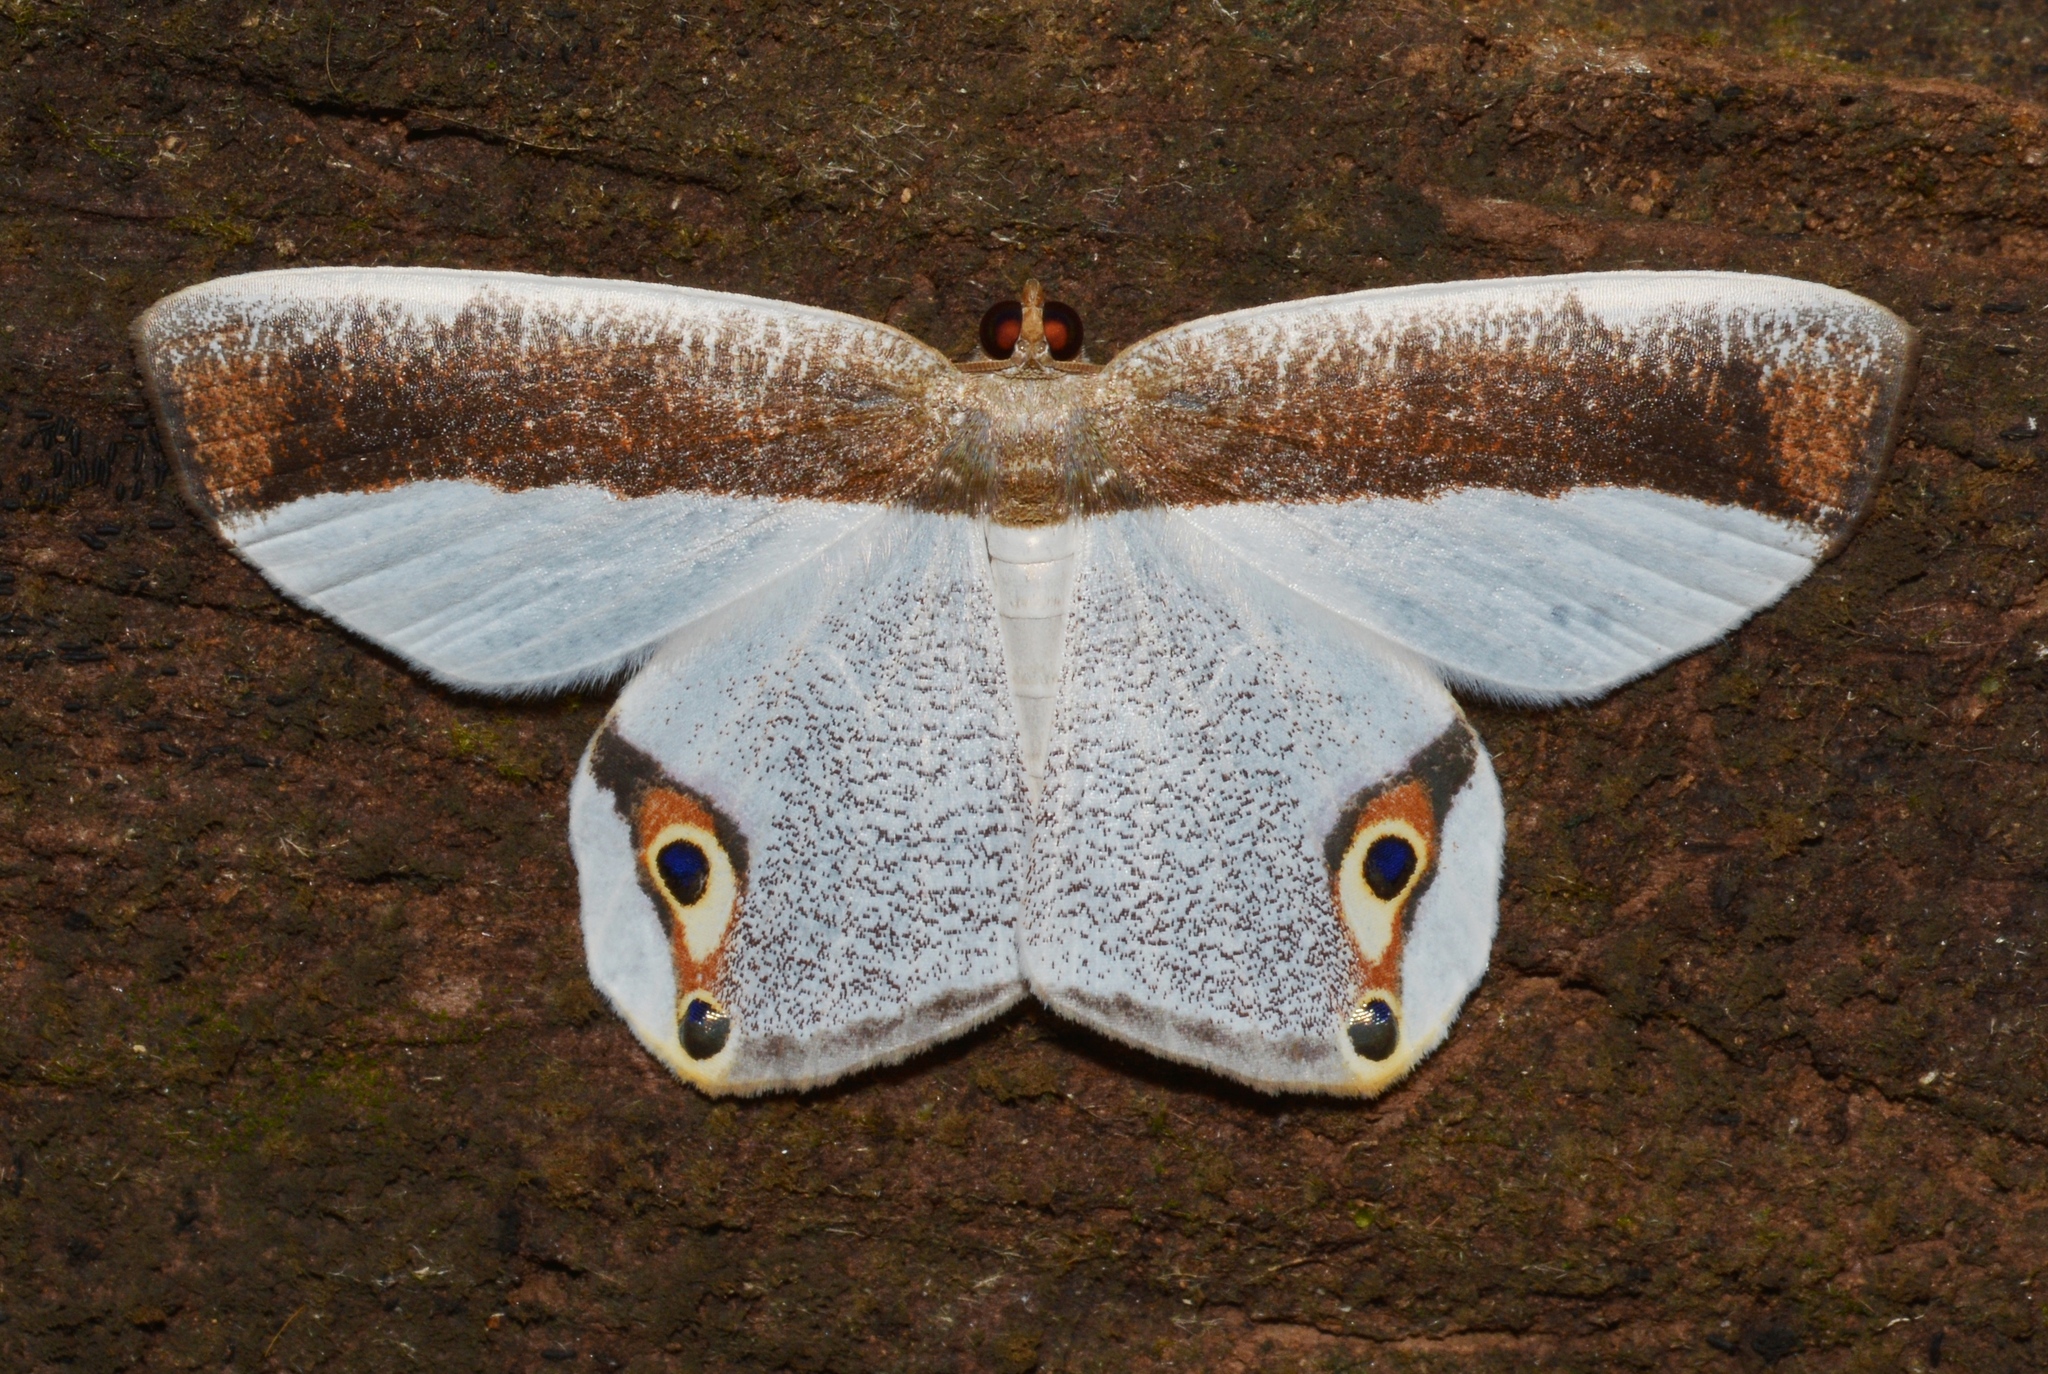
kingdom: Animalia
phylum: Arthropoda
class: Insecta
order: Lepidoptera
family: Geometridae
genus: Opisthoxia
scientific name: Opisthoxia amabilis
